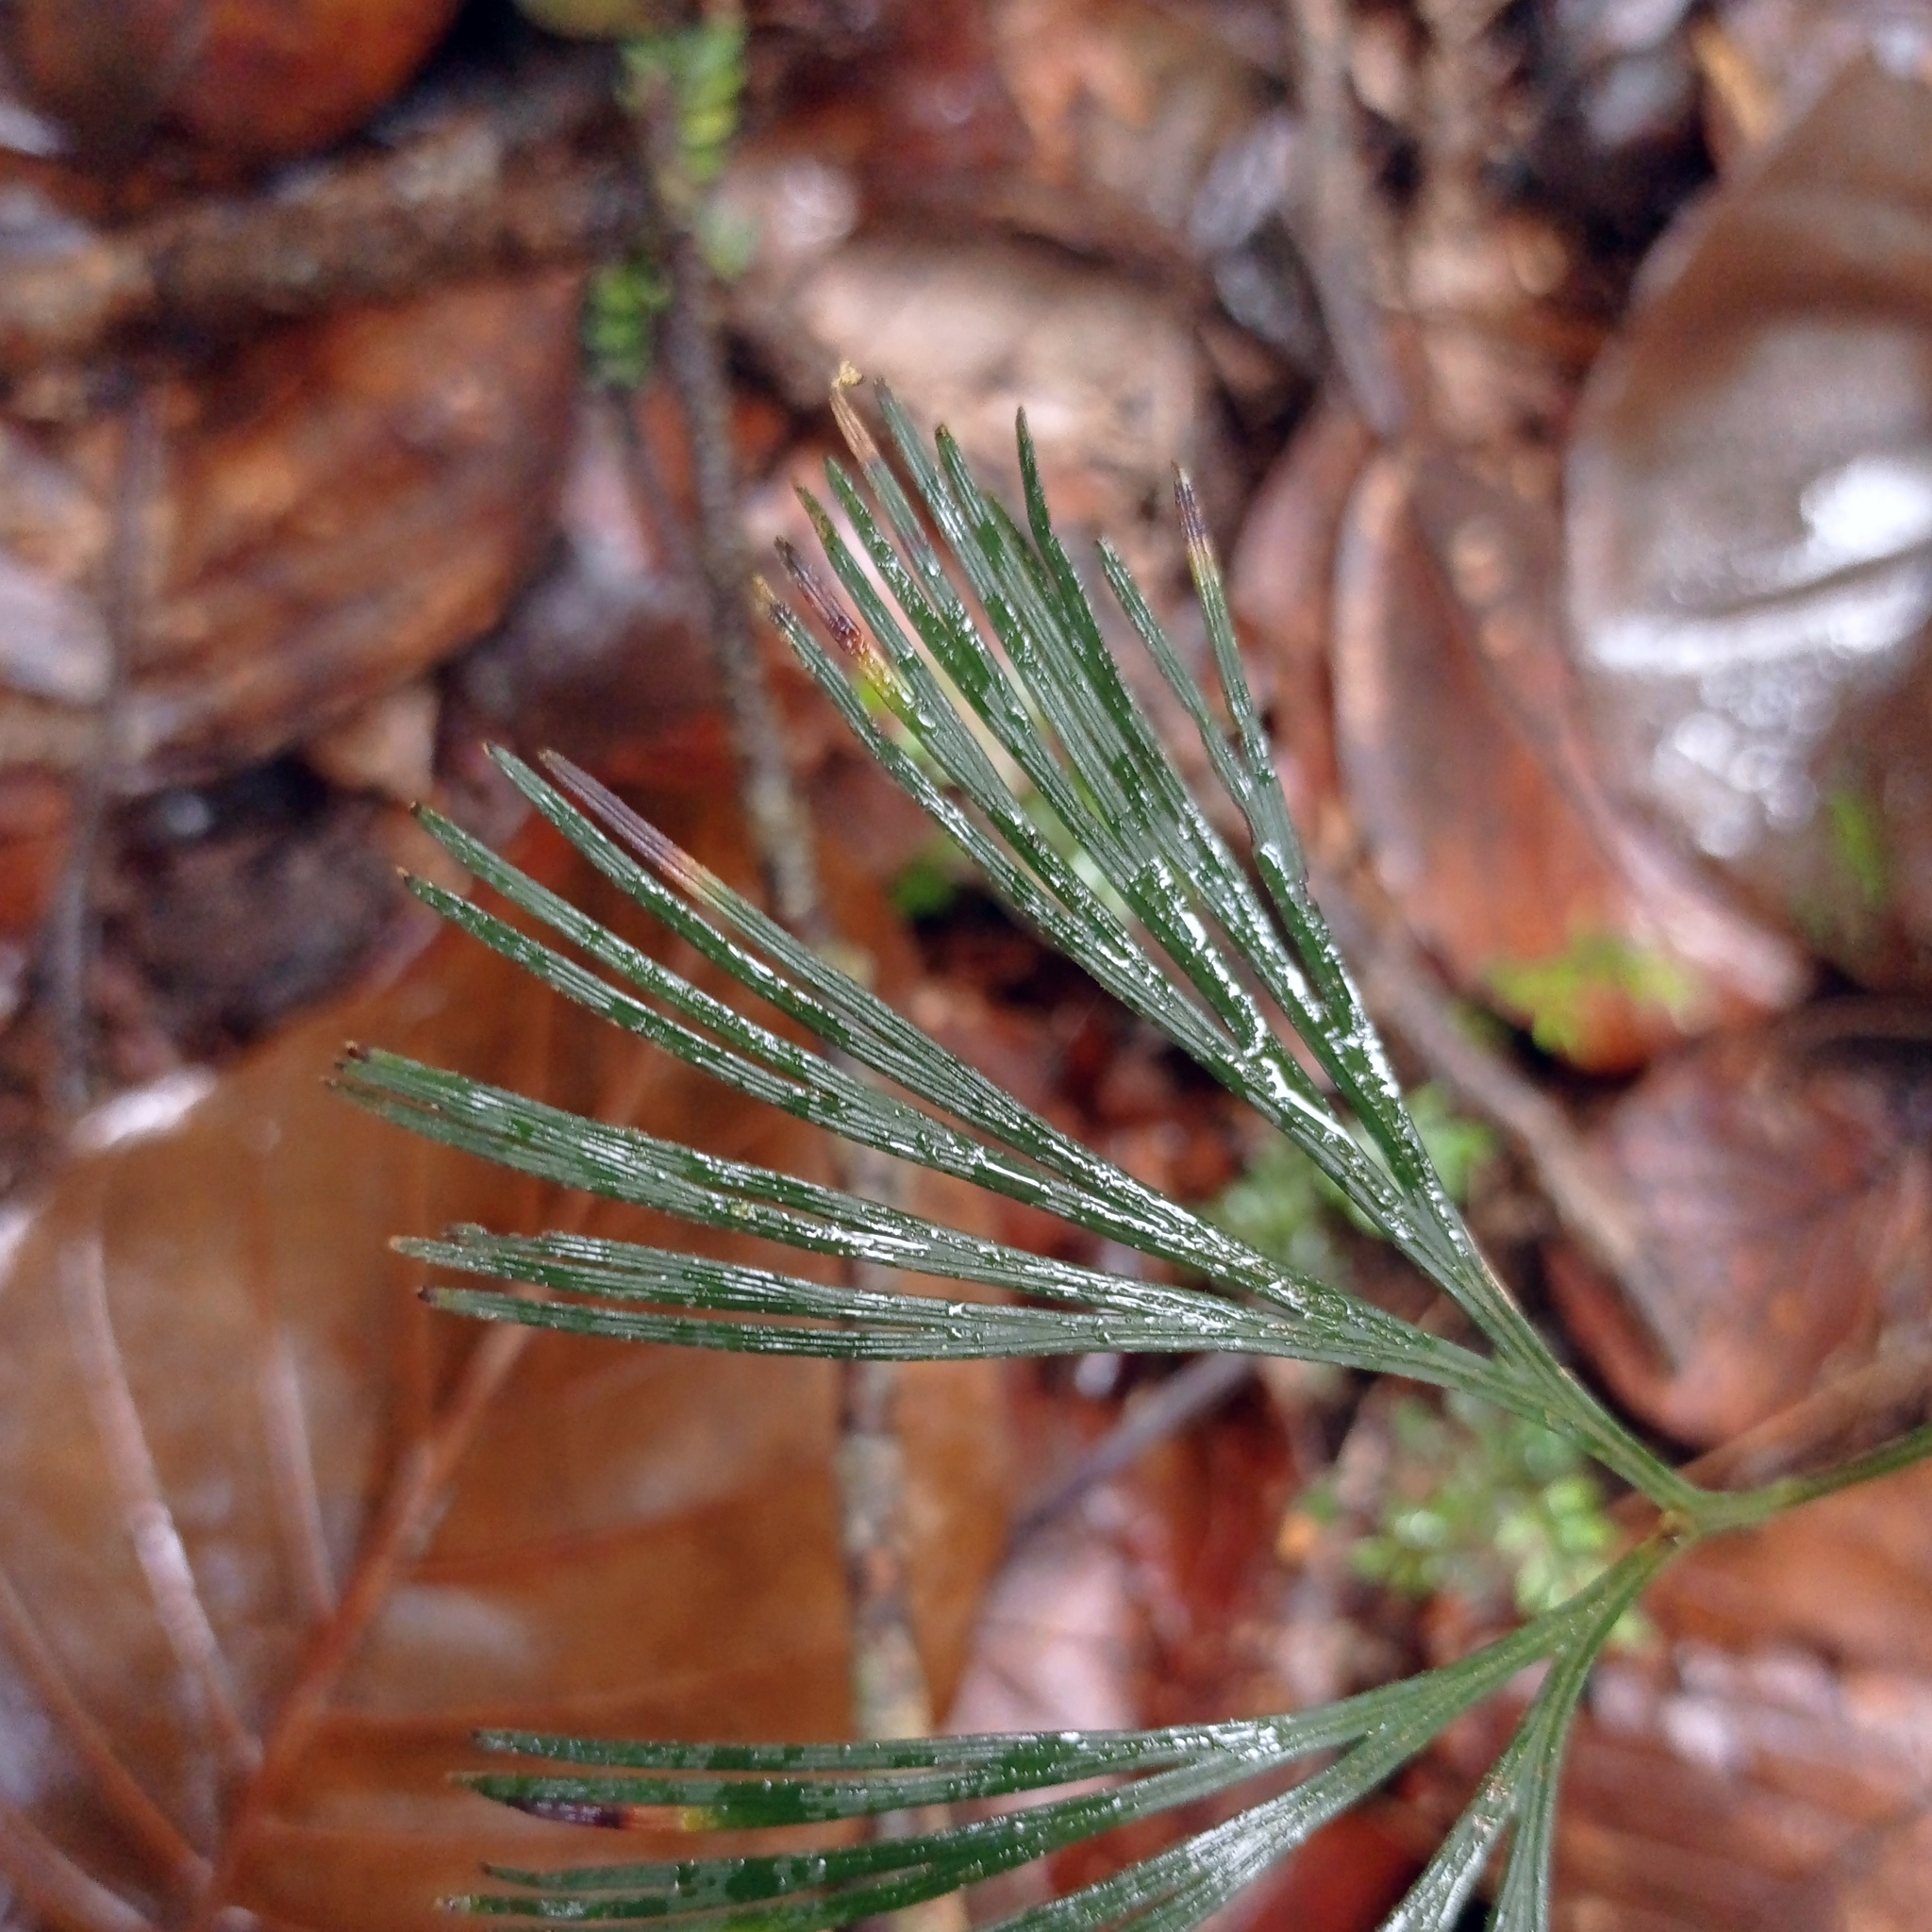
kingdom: Plantae
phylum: Tracheophyta
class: Polypodiopsida
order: Schizaeales
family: Schizaeaceae
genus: Schizaea
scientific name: Schizaea dichotoma
